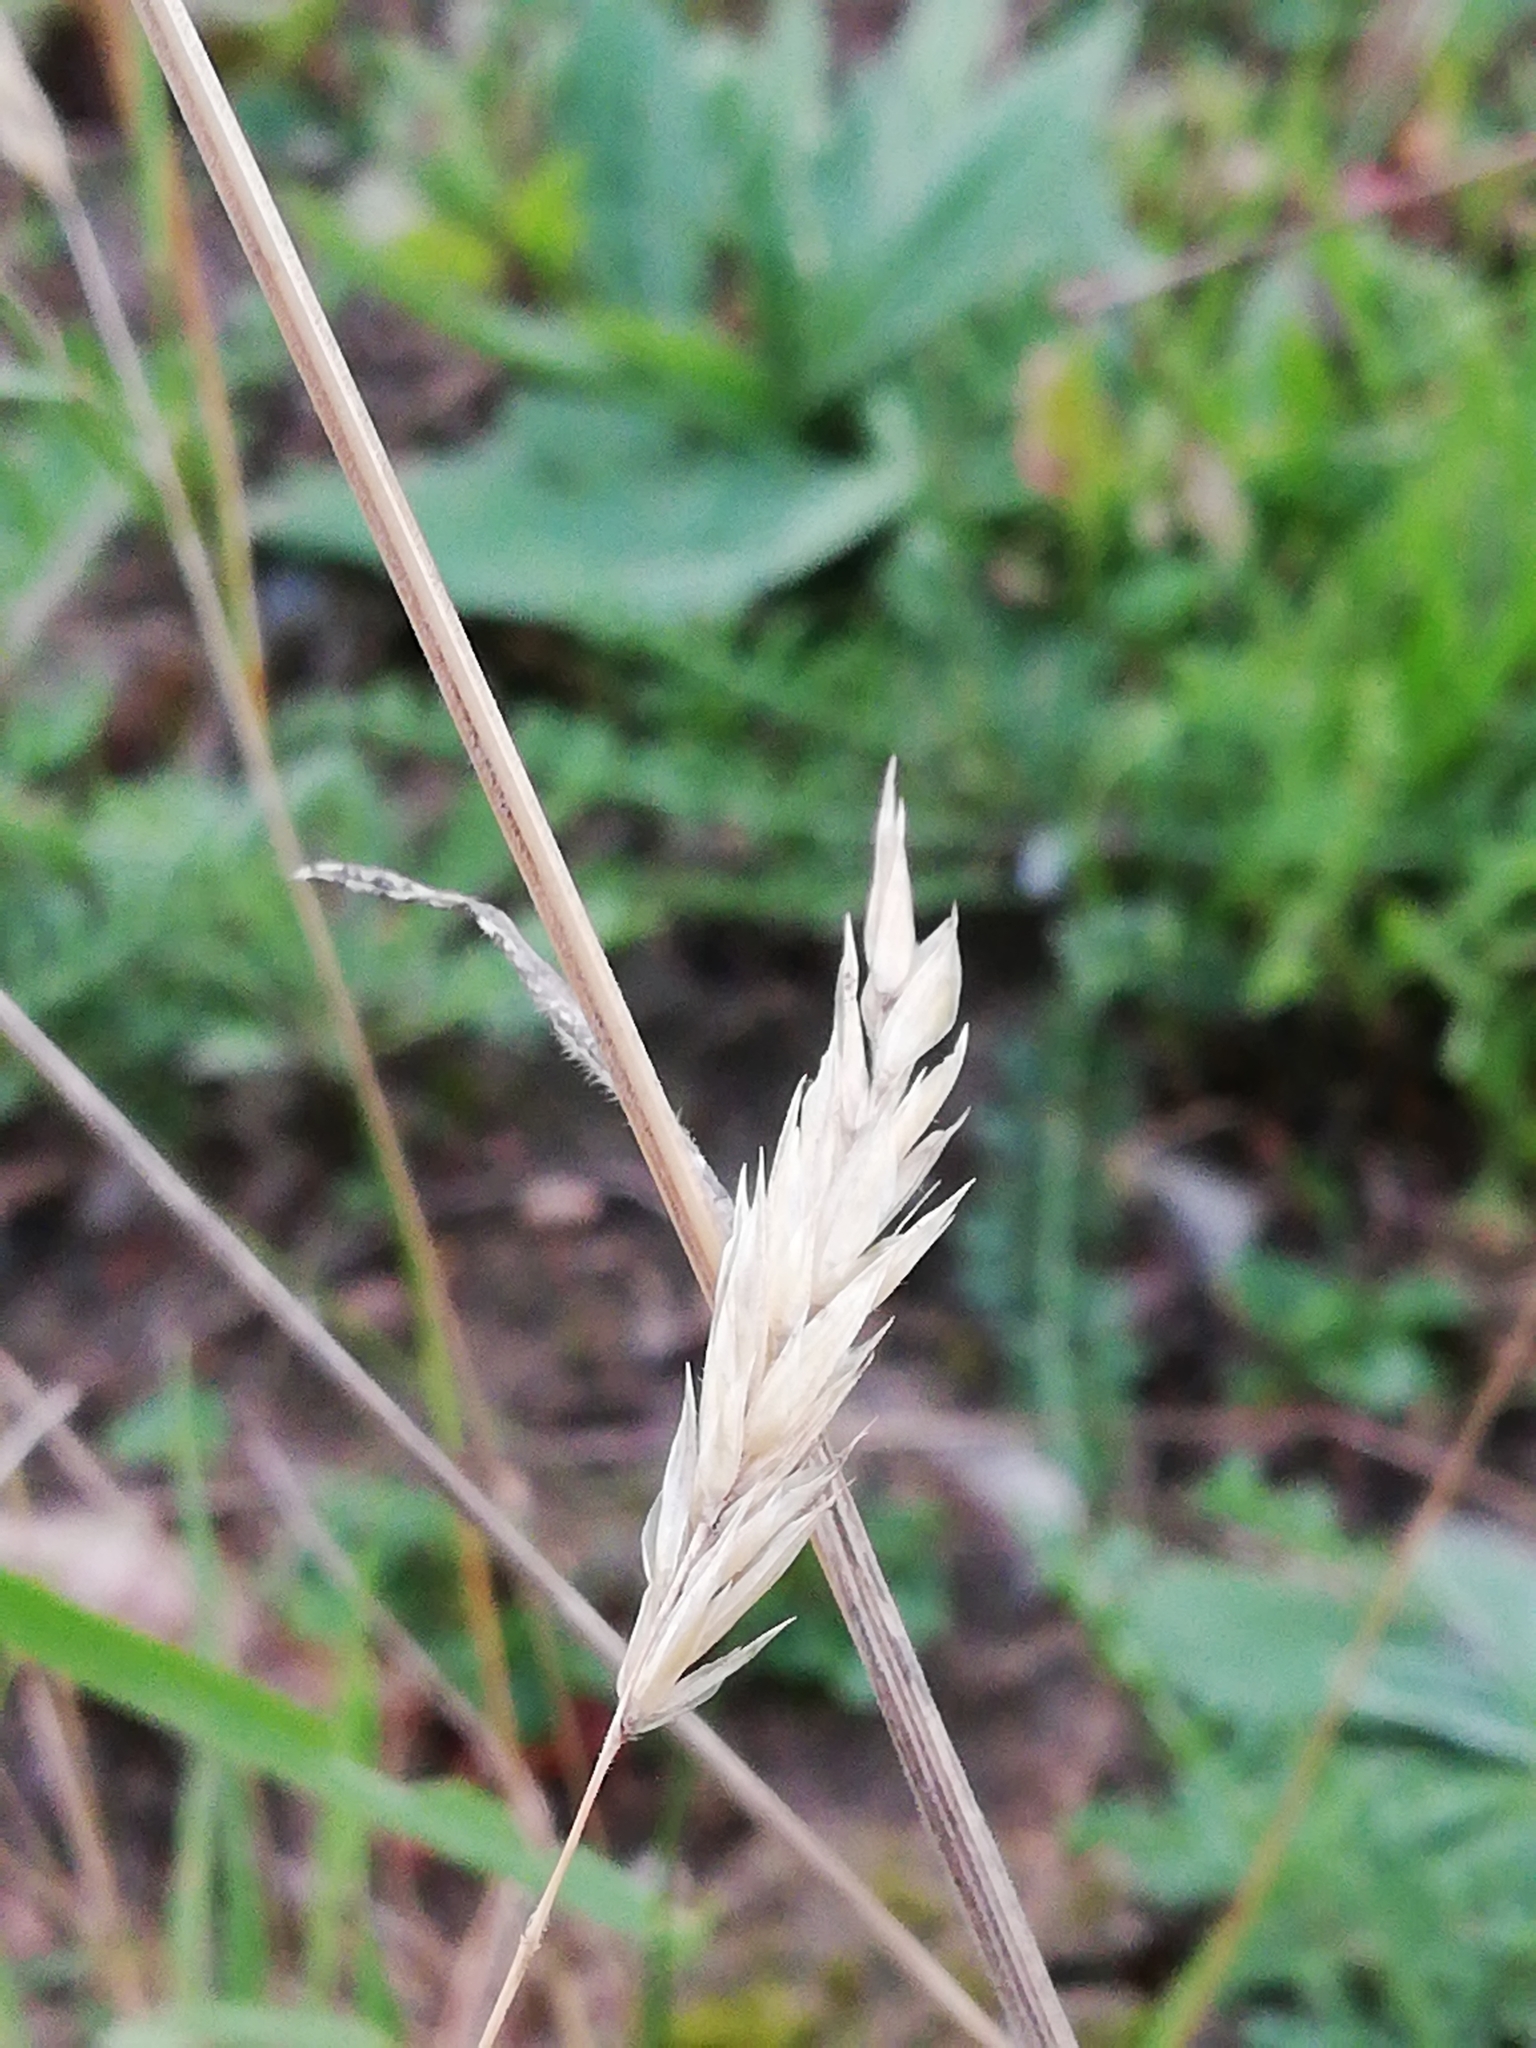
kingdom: Plantae
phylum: Tracheophyta
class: Liliopsida
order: Poales
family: Poaceae
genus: Anthoxanthum
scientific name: Anthoxanthum odoratum
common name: Sweet vernalgrass
